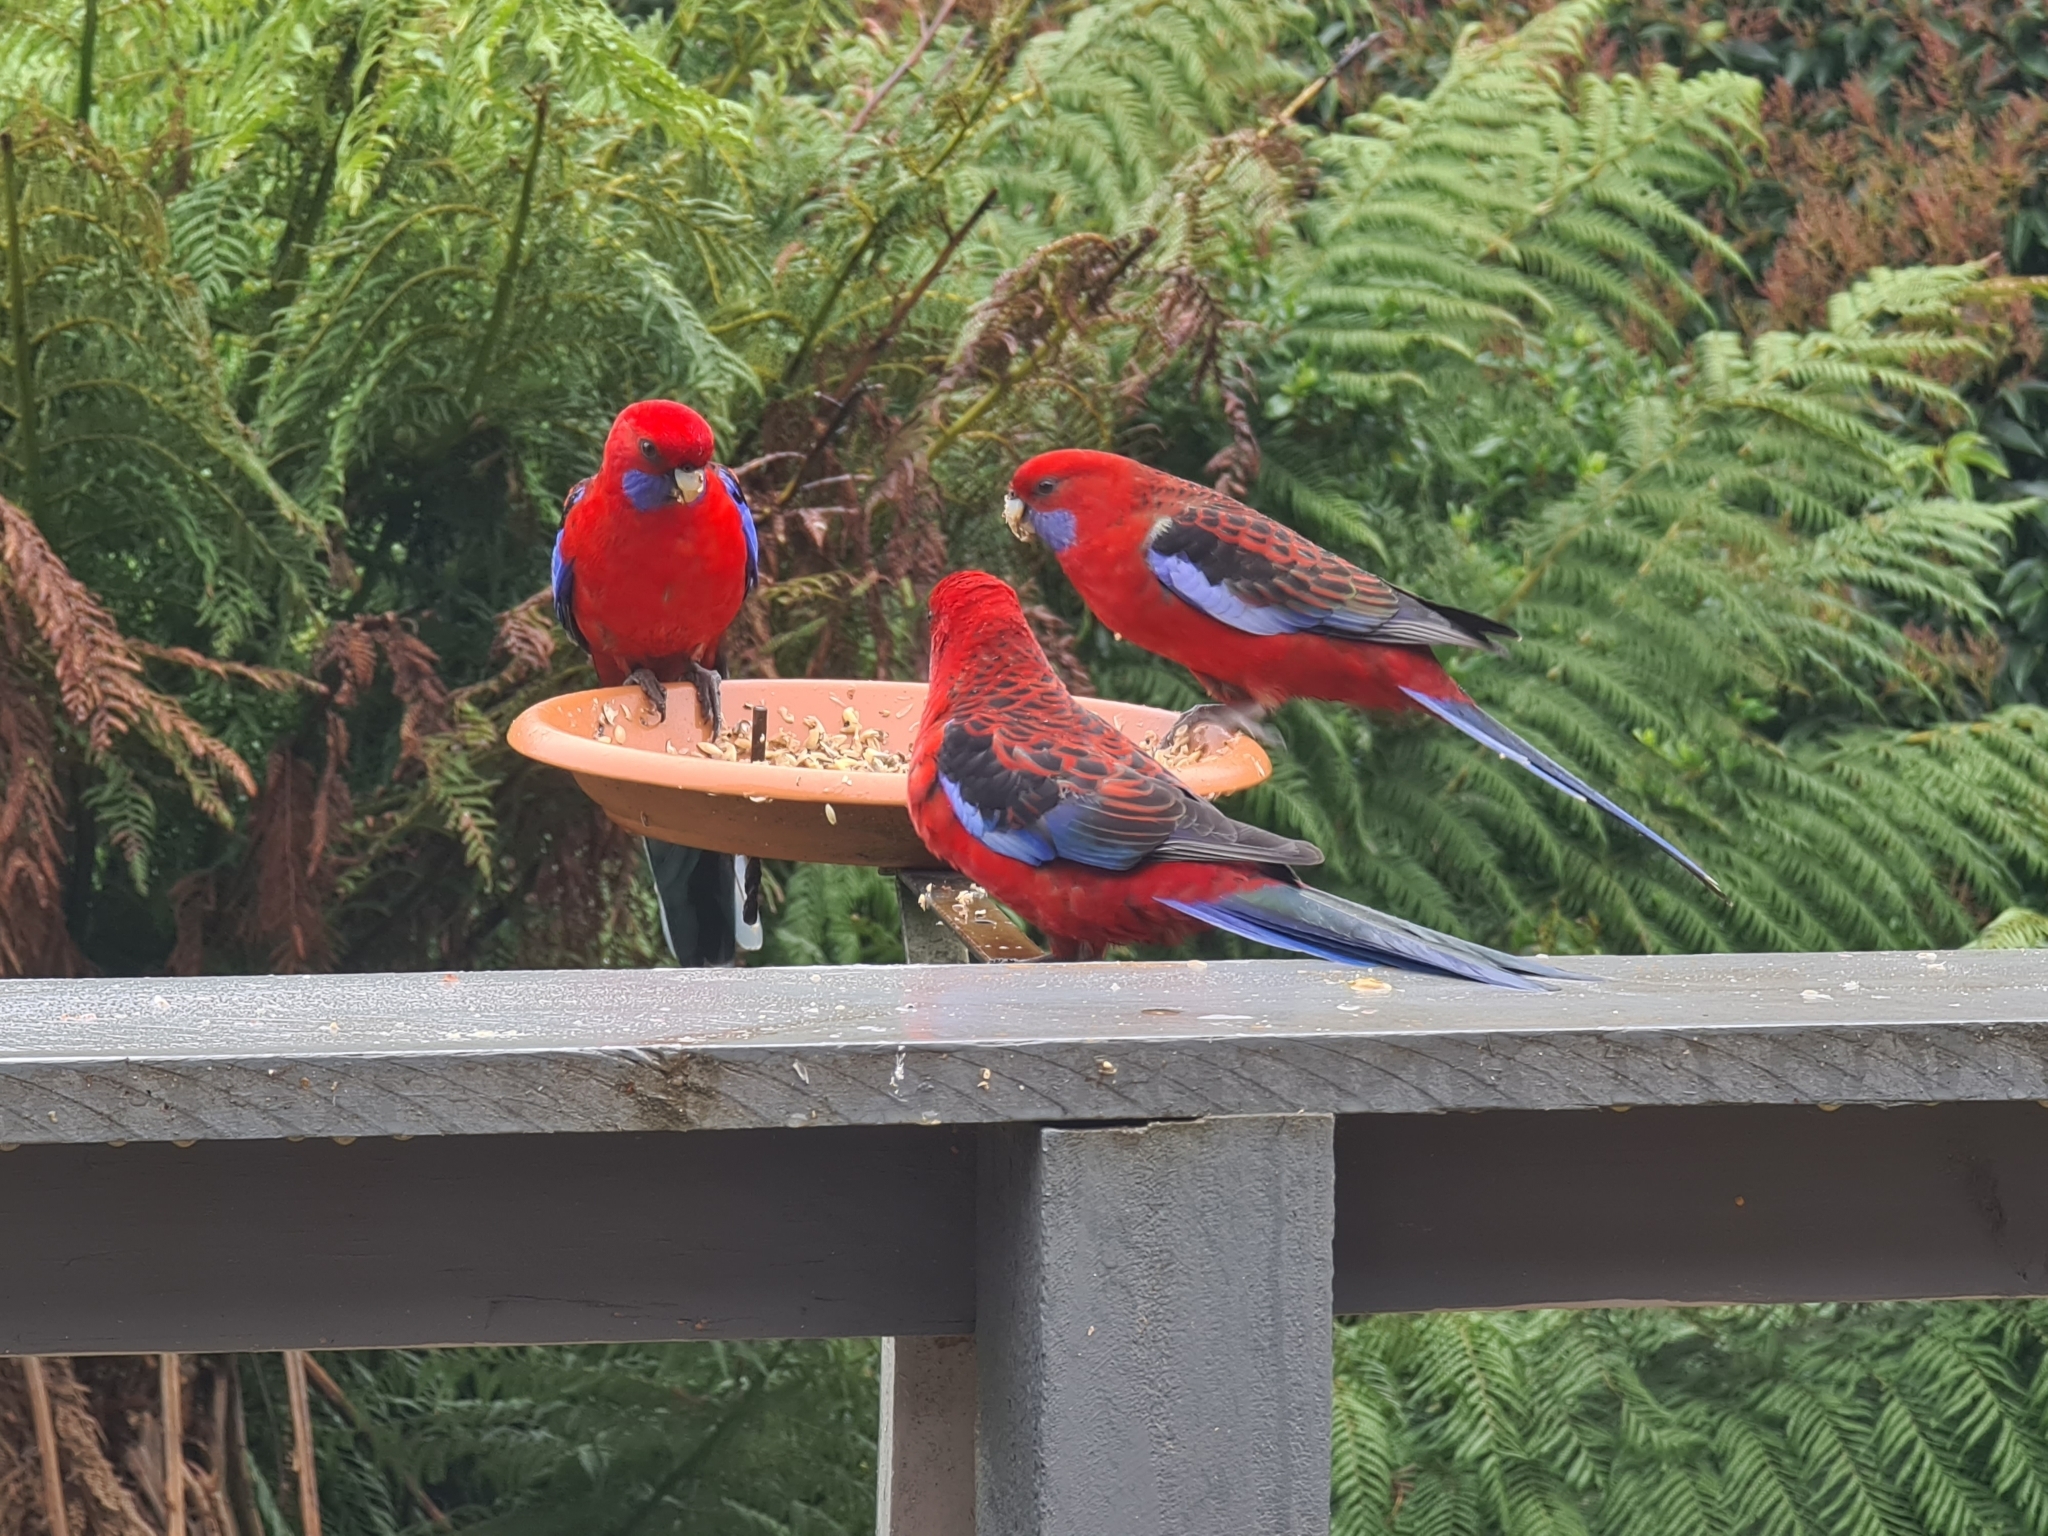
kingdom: Animalia
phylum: Chordata
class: Aves
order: Psittaciformes
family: Psittacidae
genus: Platycercus
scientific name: Platycercus elegans
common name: Crimson rosella
